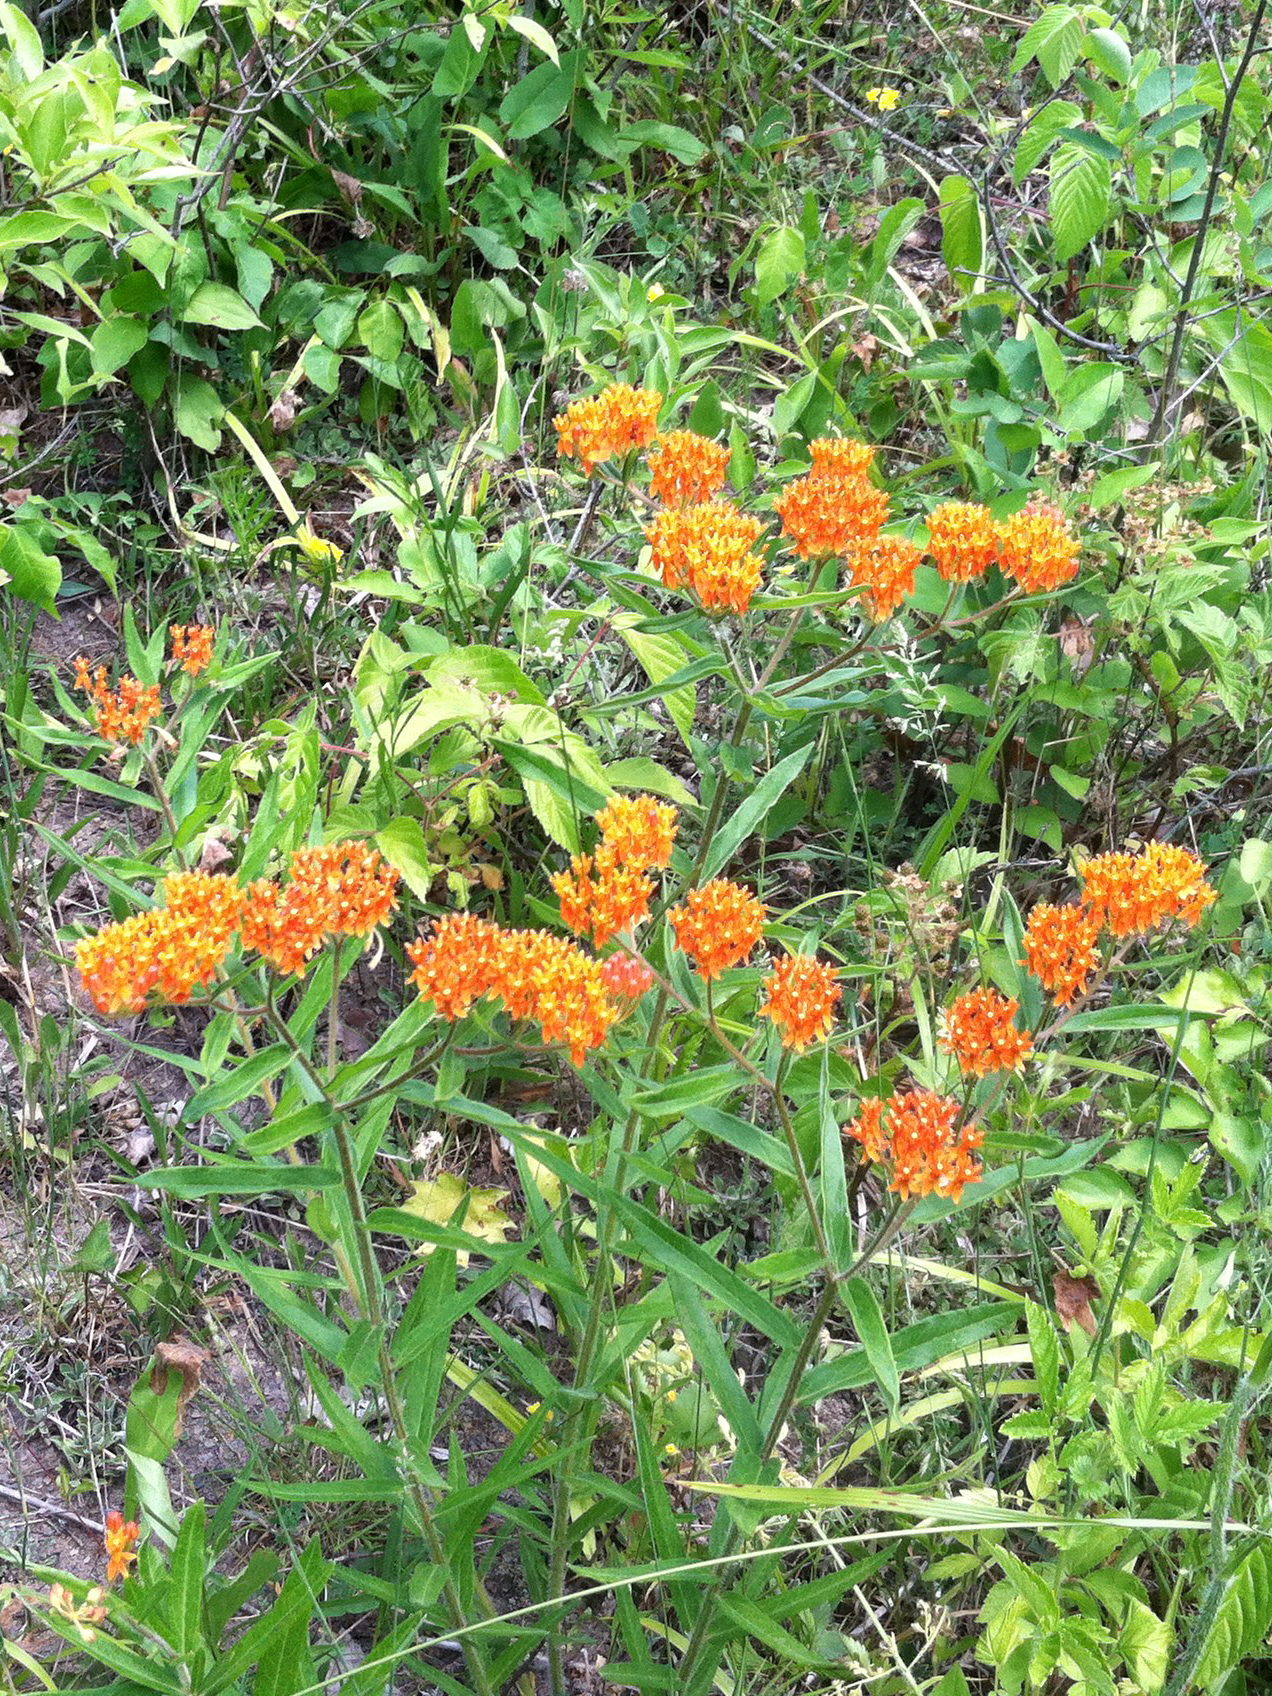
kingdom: Plantae
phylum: Tracheophyta
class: Magnoliopsida
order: Gentianales
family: Apocynaceae
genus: Asclepias
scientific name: Asclepias tuberosa
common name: Butterfly milkweed
